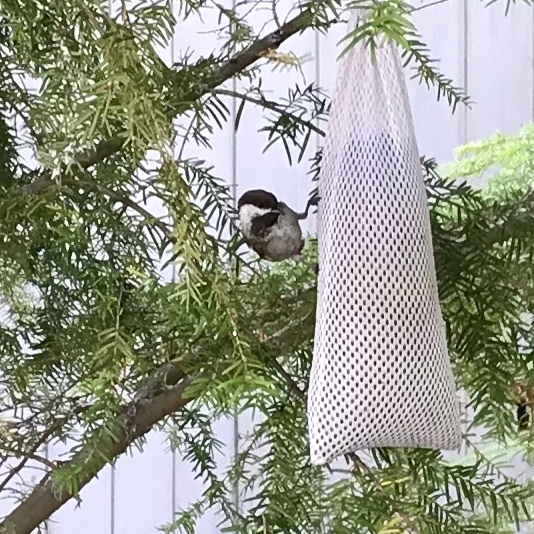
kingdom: Animalia
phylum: Chordata
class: Aves
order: Passeriformes
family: Paridae
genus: Poecile
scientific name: Poecile rufescens
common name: Chestnut-backed chickadee
